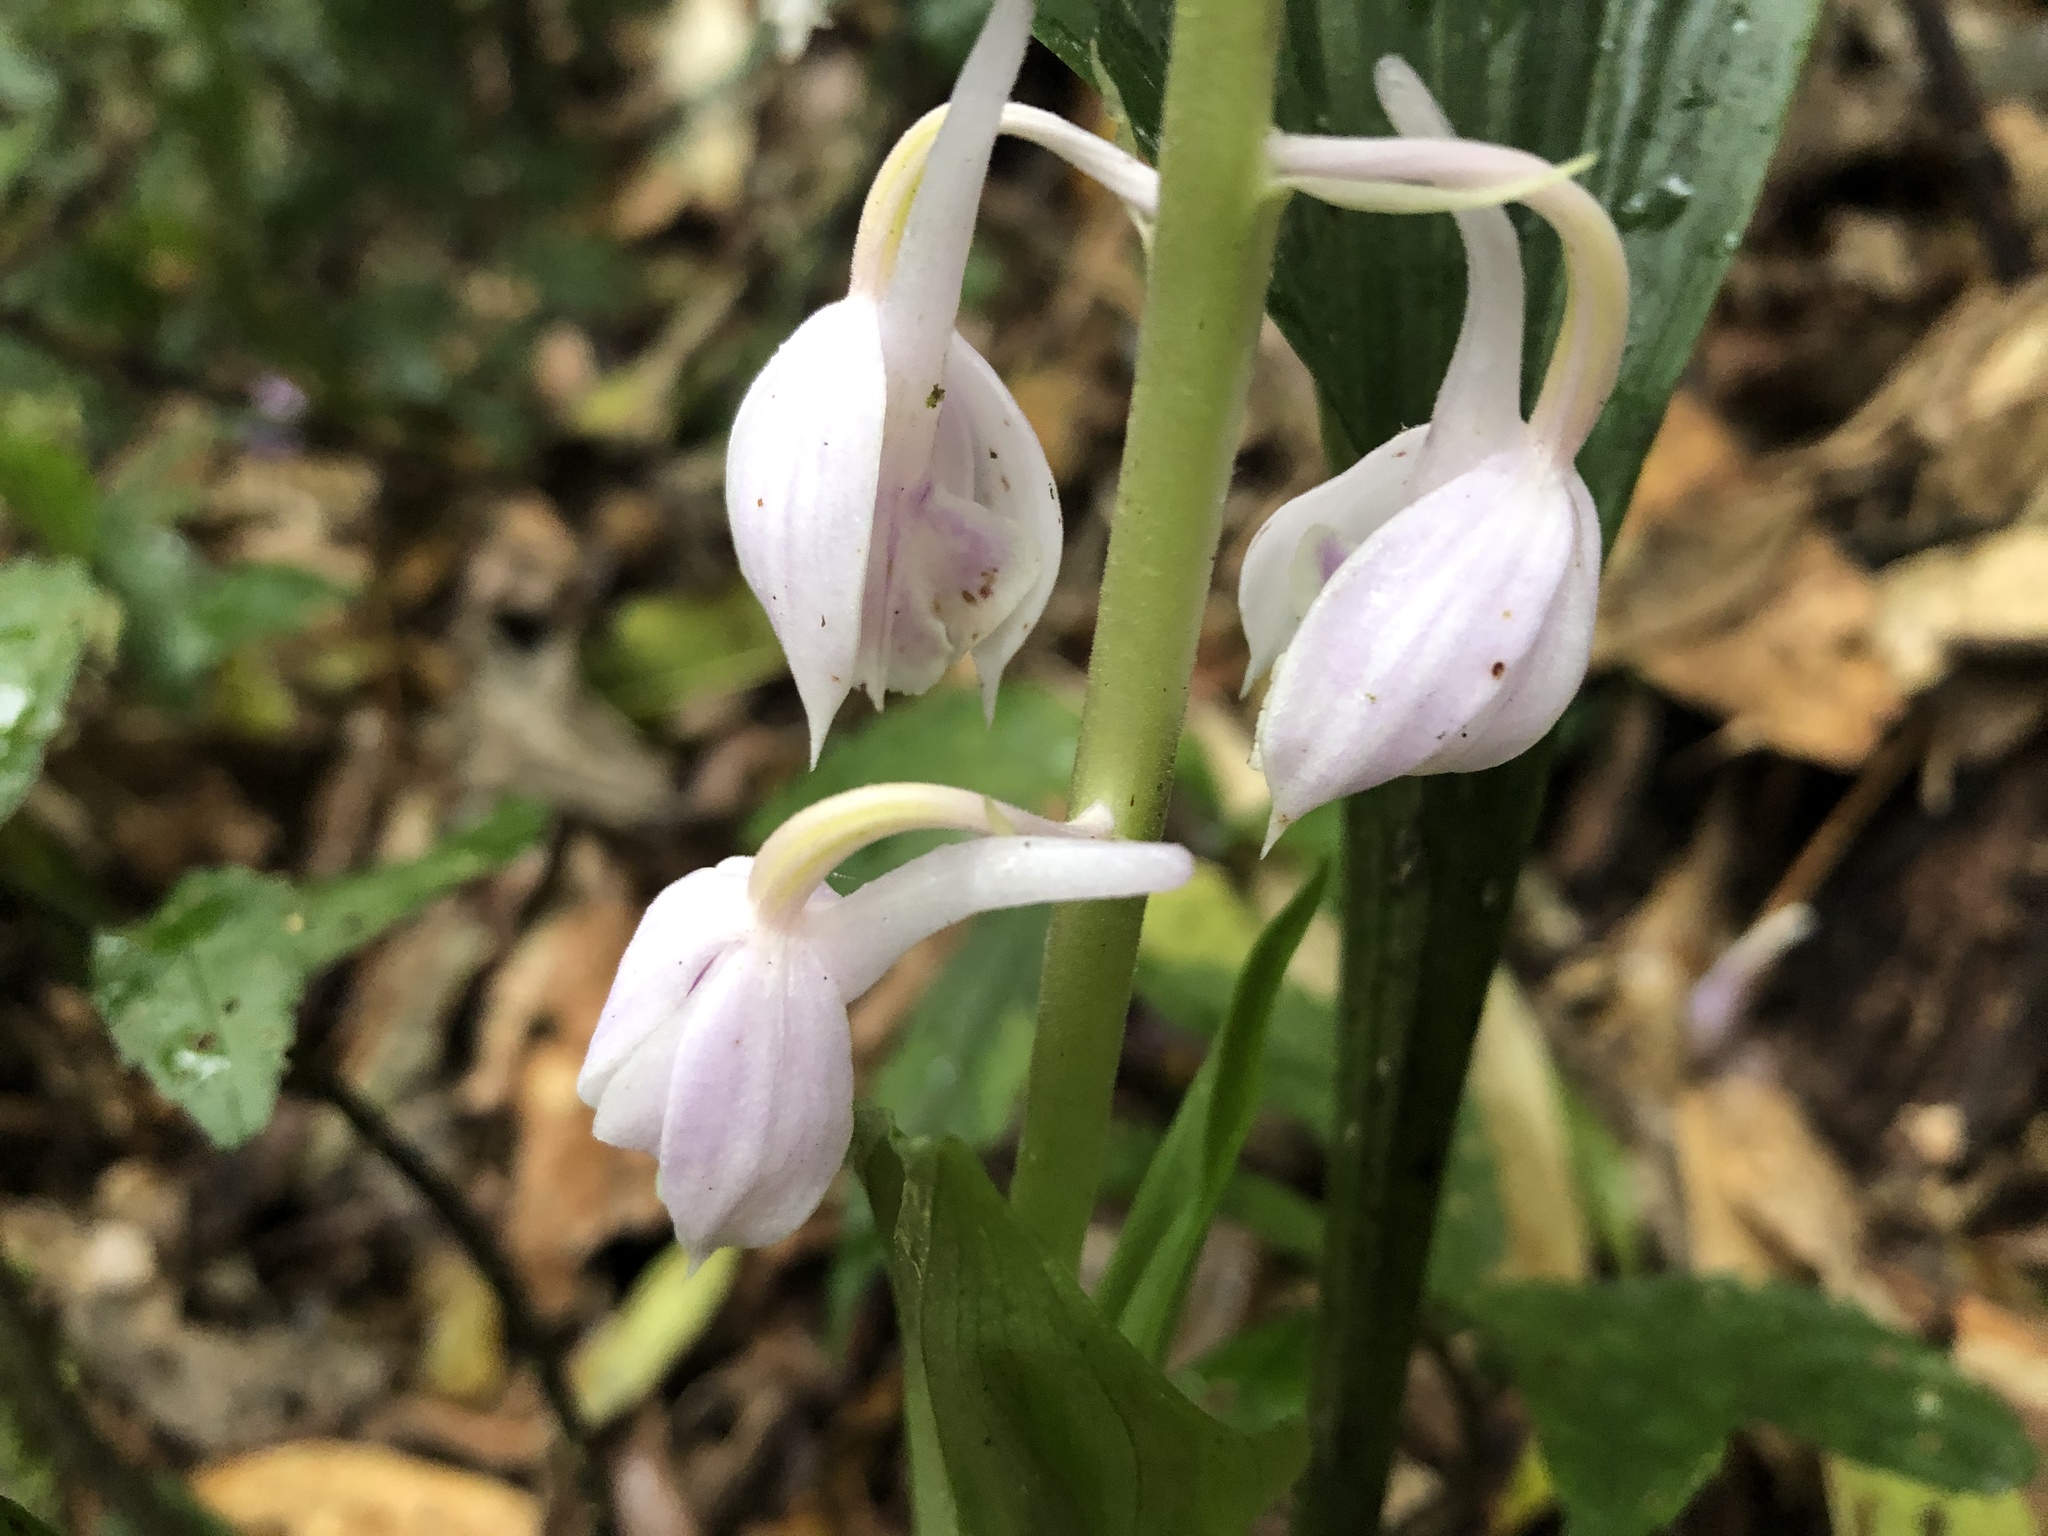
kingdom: Plantae
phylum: Tracheophyta
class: Liliopsida
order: Asparagales
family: Orchidaceae
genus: Calanthe
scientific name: Calanthe aristulifera
